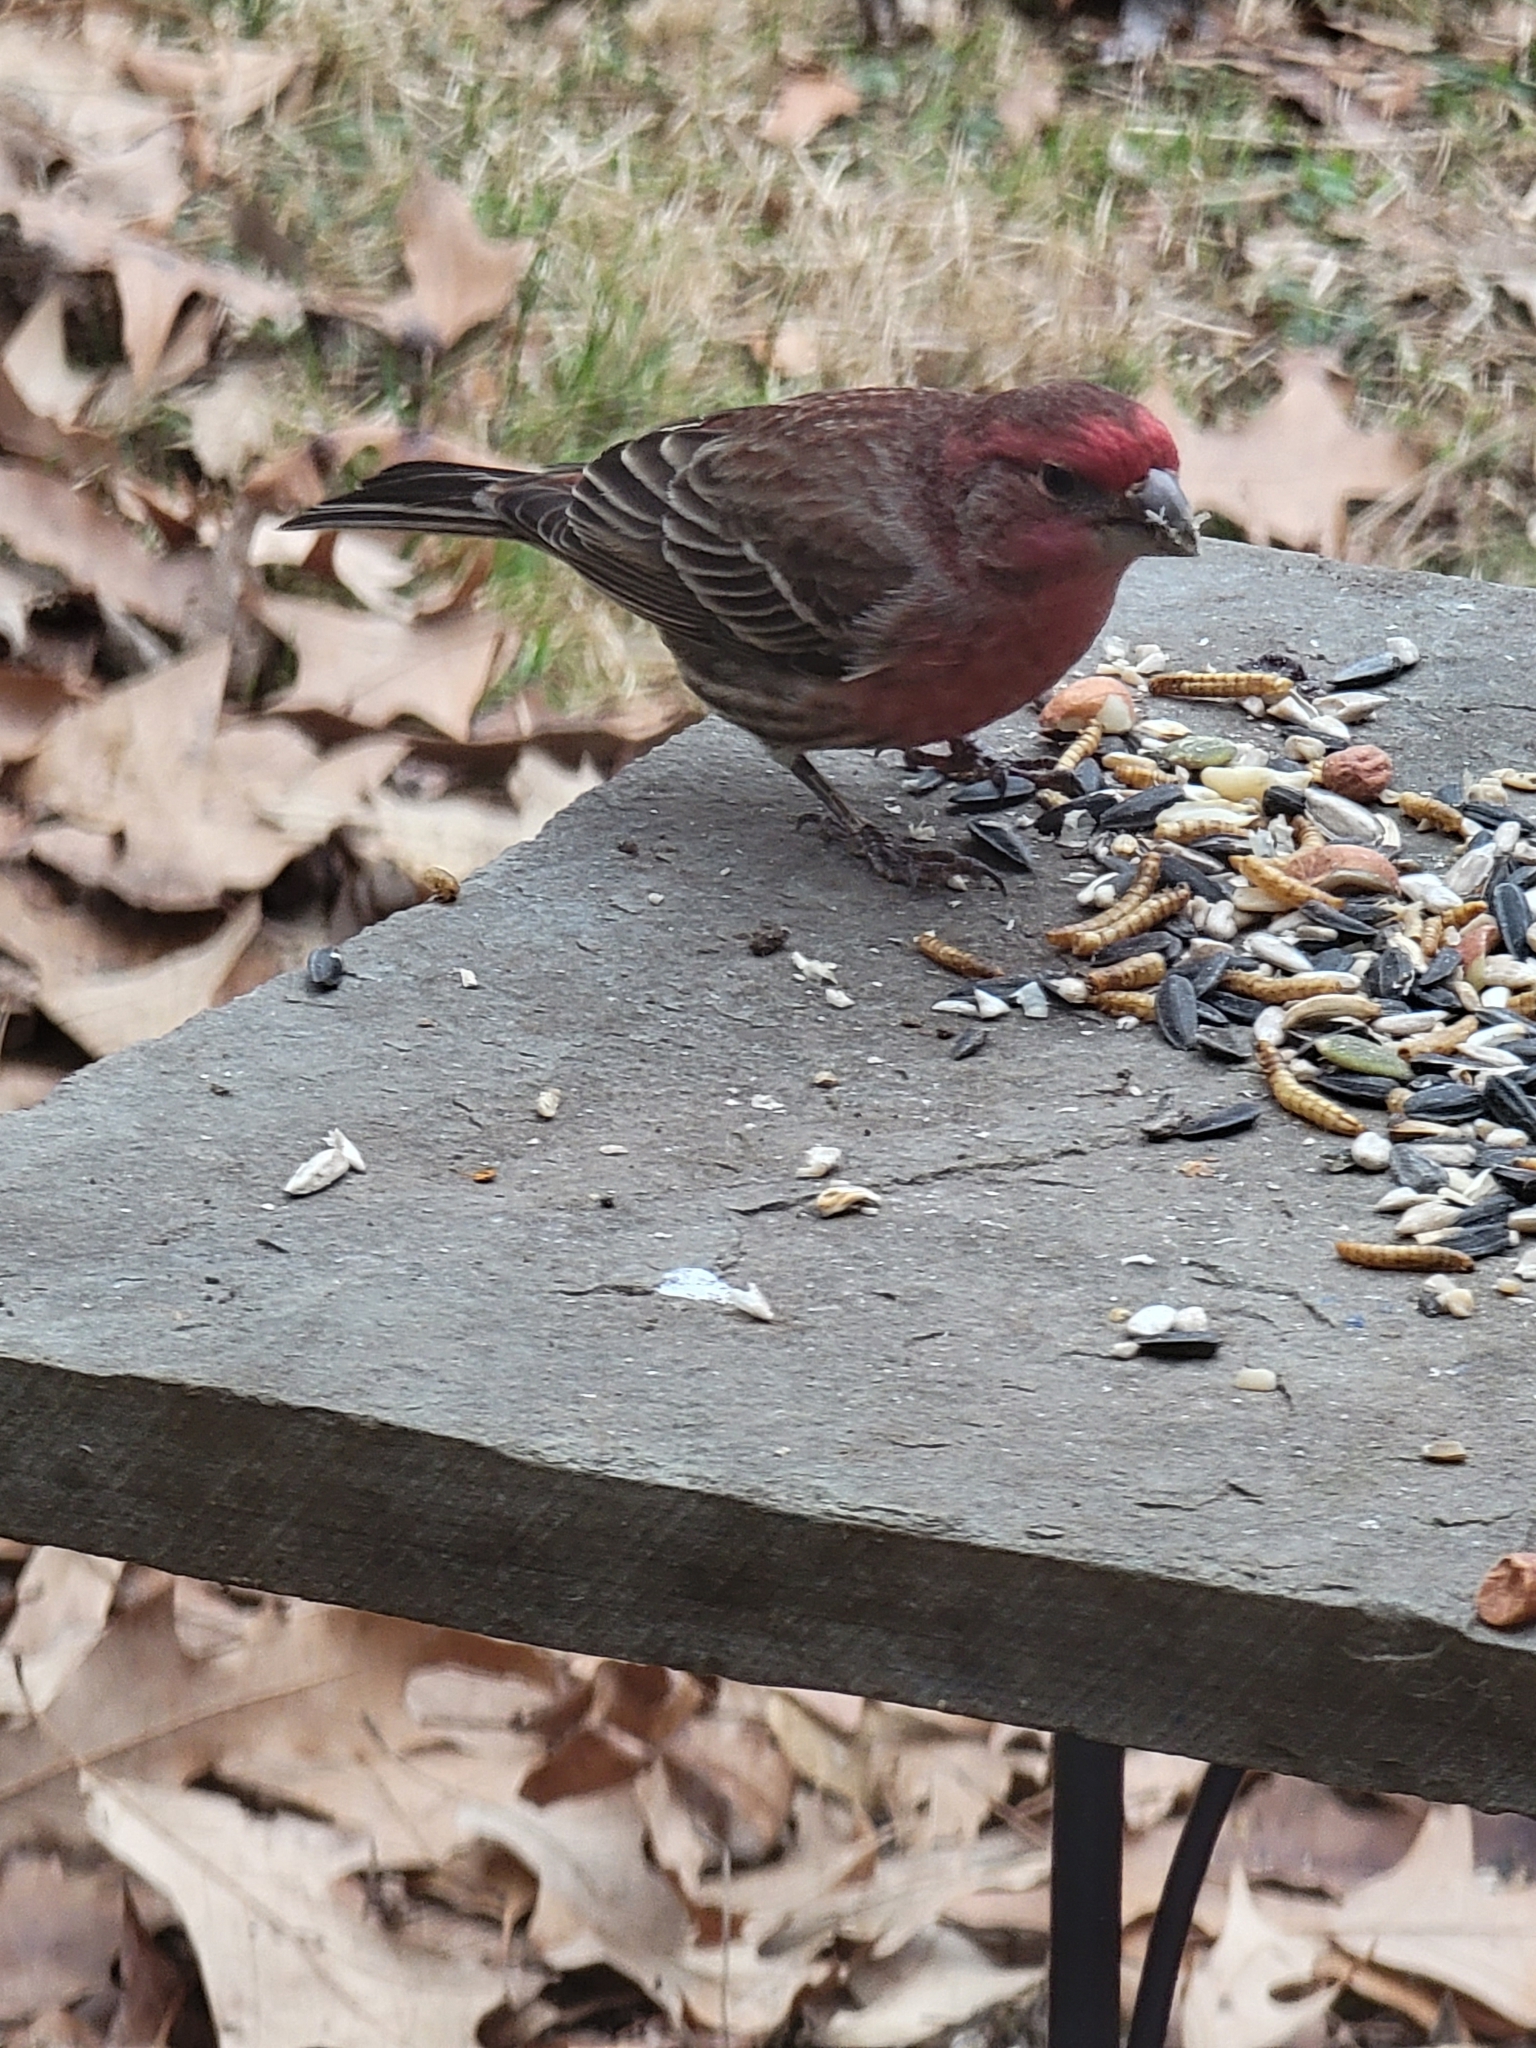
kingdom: Animalia
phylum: Chordata
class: Aves
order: Passeriformes
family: Fringillidae
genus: Haemorhous
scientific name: Haemorhous mexicanus
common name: House finch
